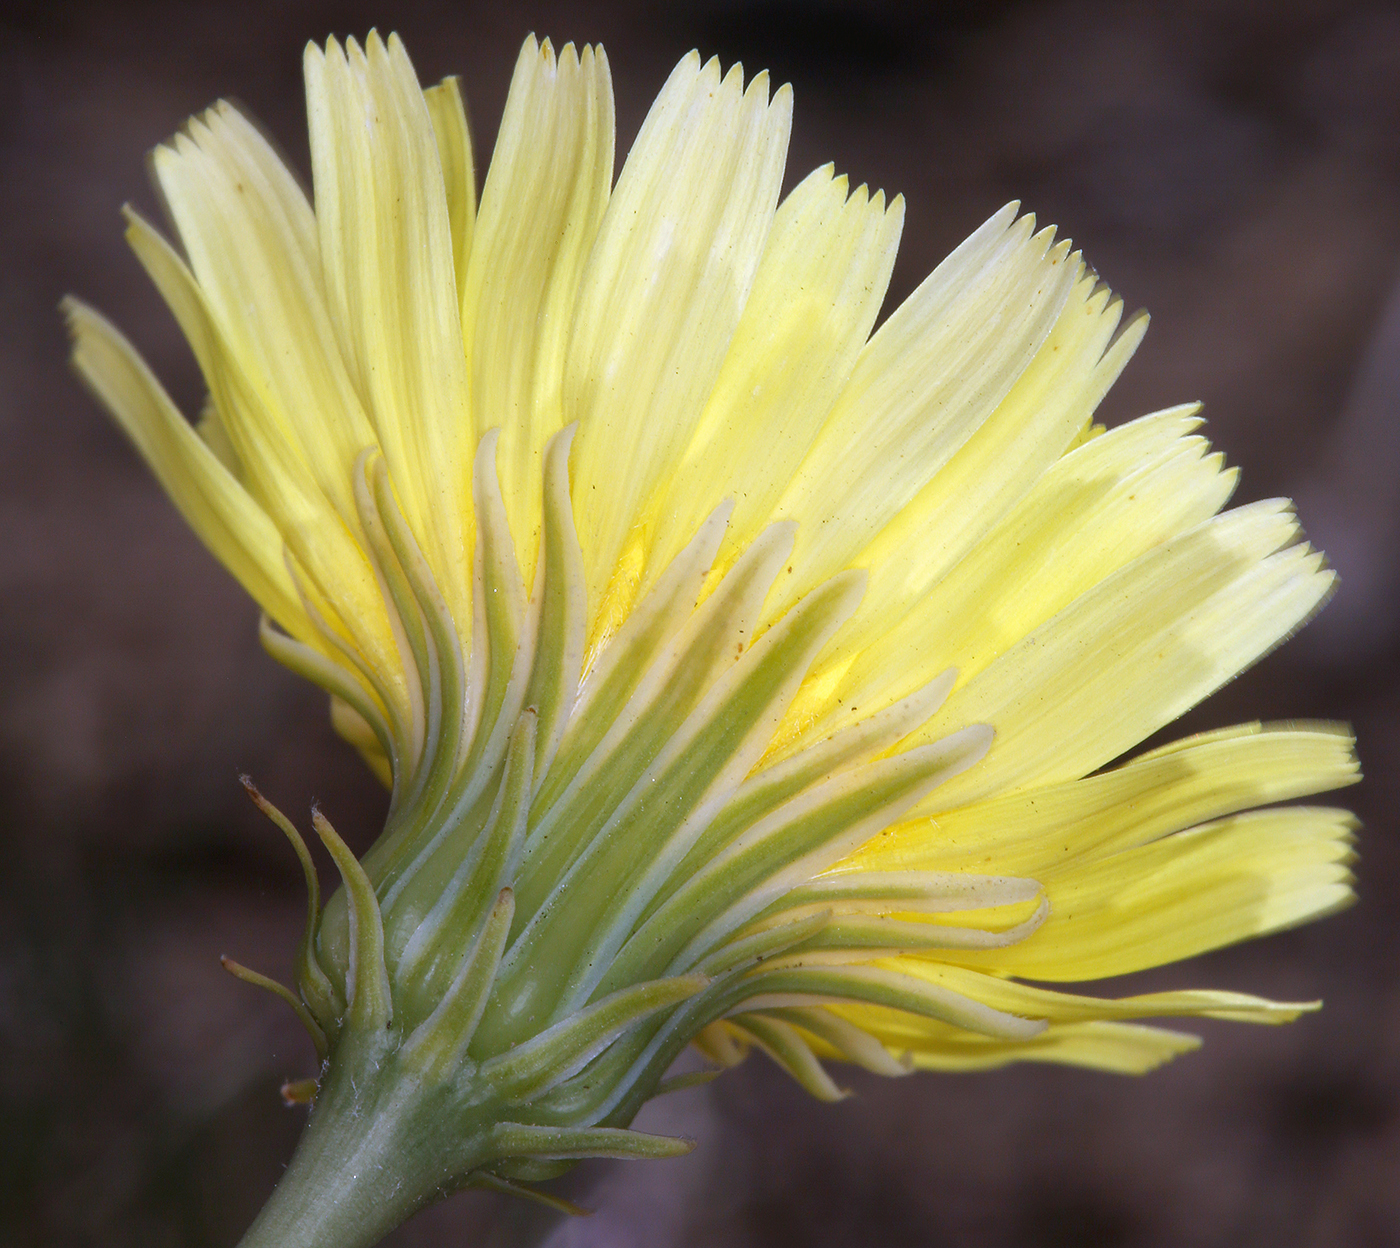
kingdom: Plantae
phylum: Tracheophyta
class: Magnoliopsida
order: Asterales
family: Asteraceae
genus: Malacothrix
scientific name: Malacothrix glabrata
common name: Smooth desert-dandelion
